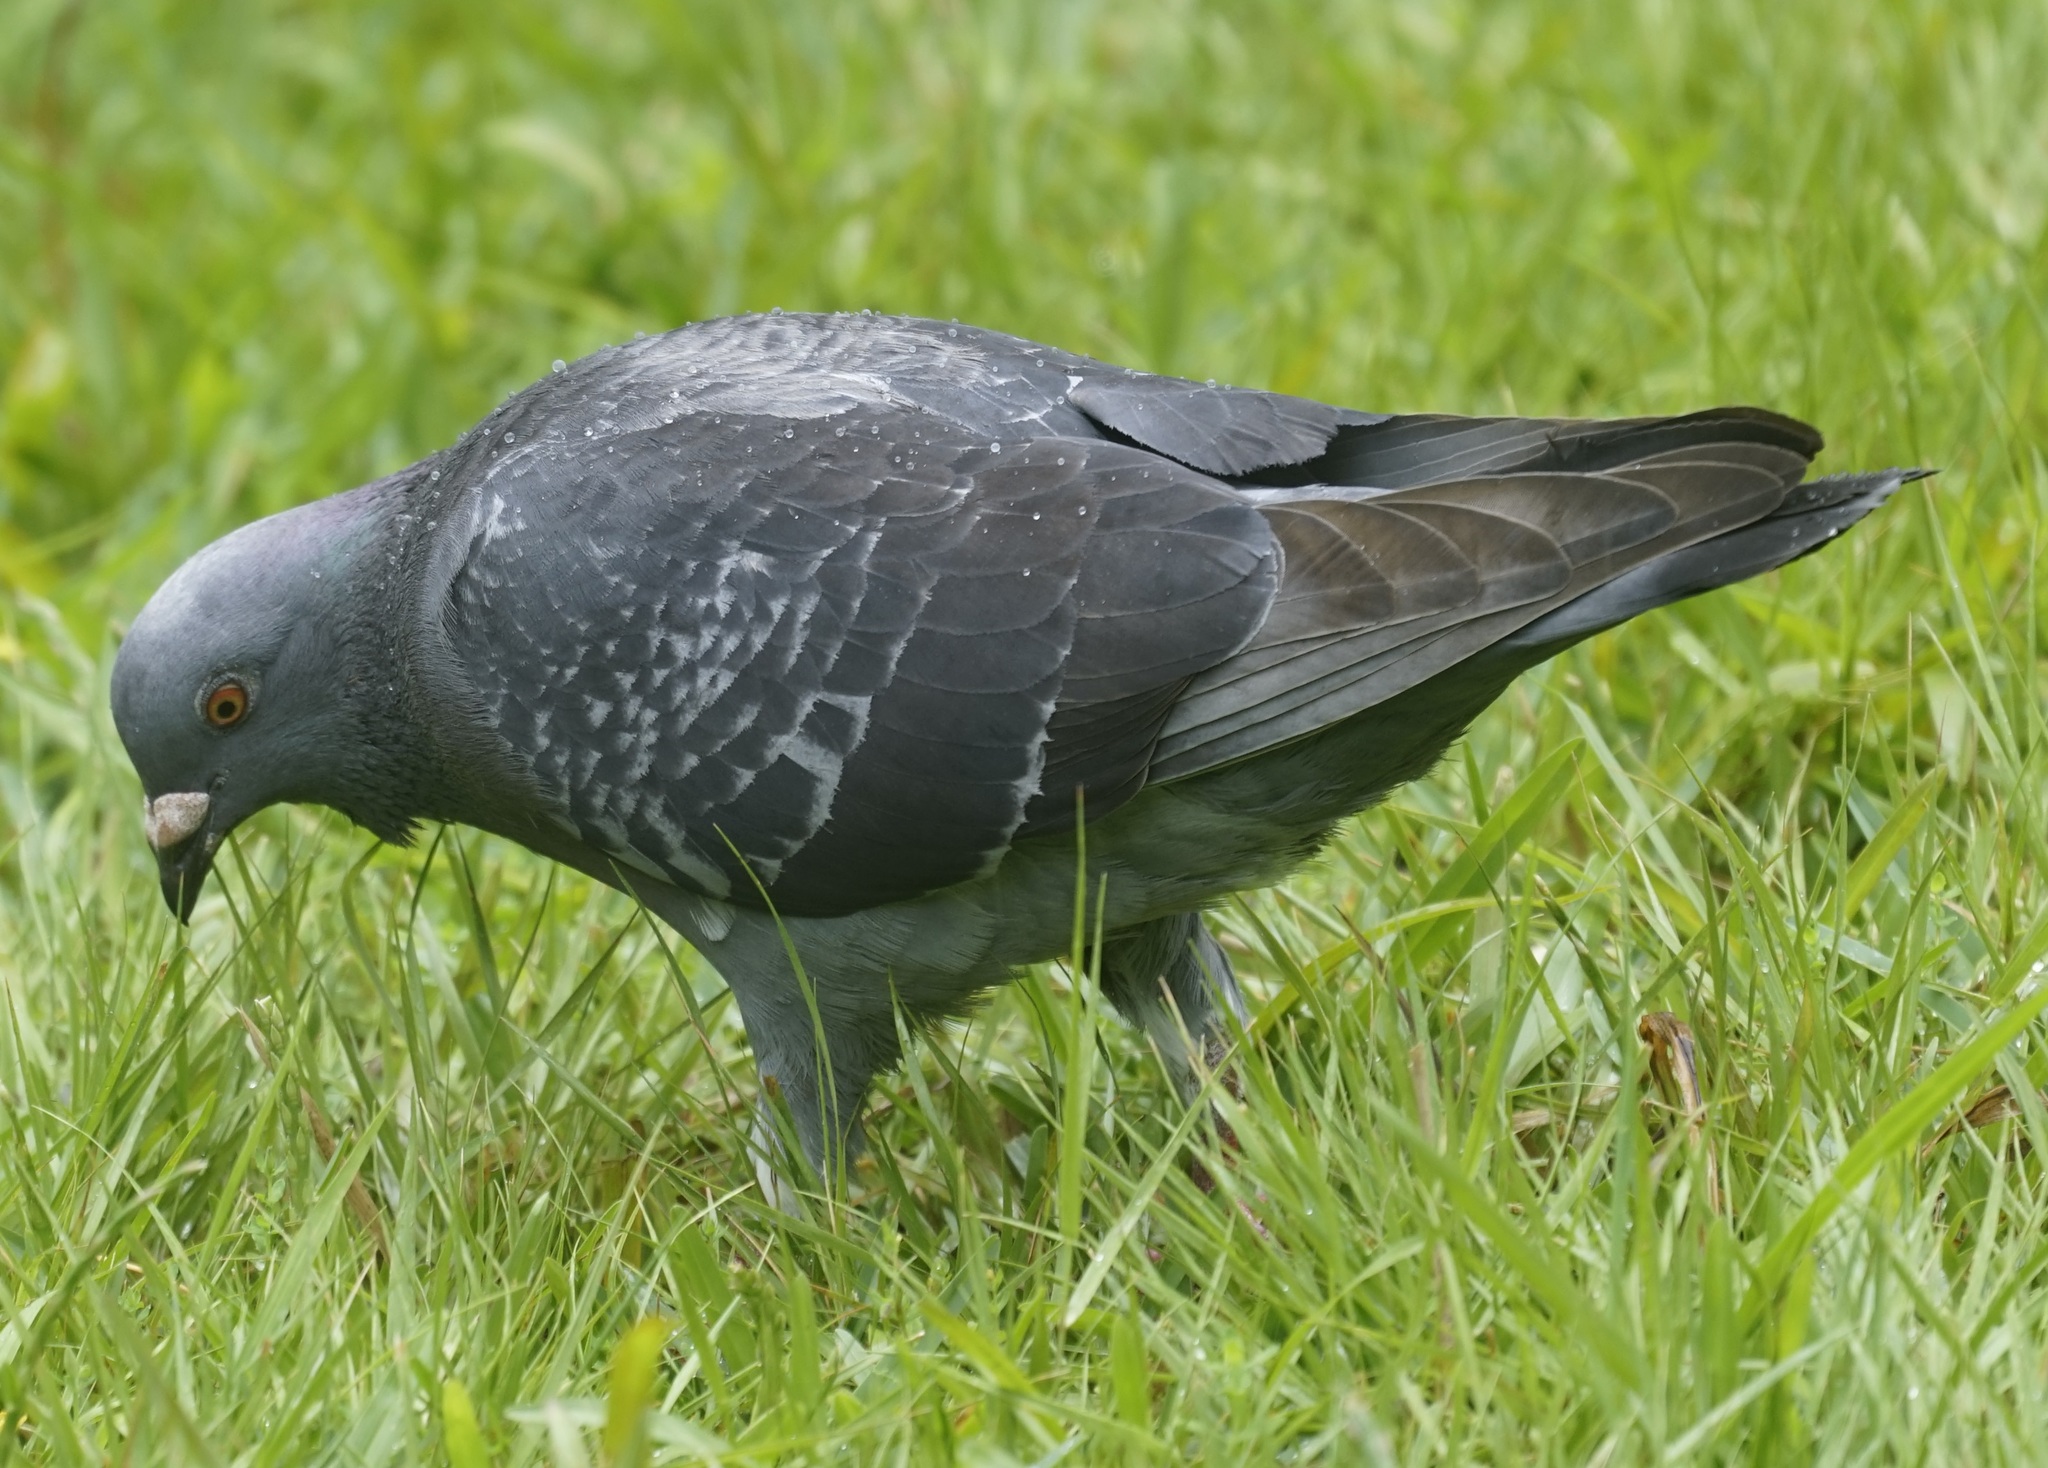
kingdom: Animalia
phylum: Chordata
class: Aves
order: Columbiformes
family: Columbidae
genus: Columba
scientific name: Columba livia
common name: Rock pigeon
